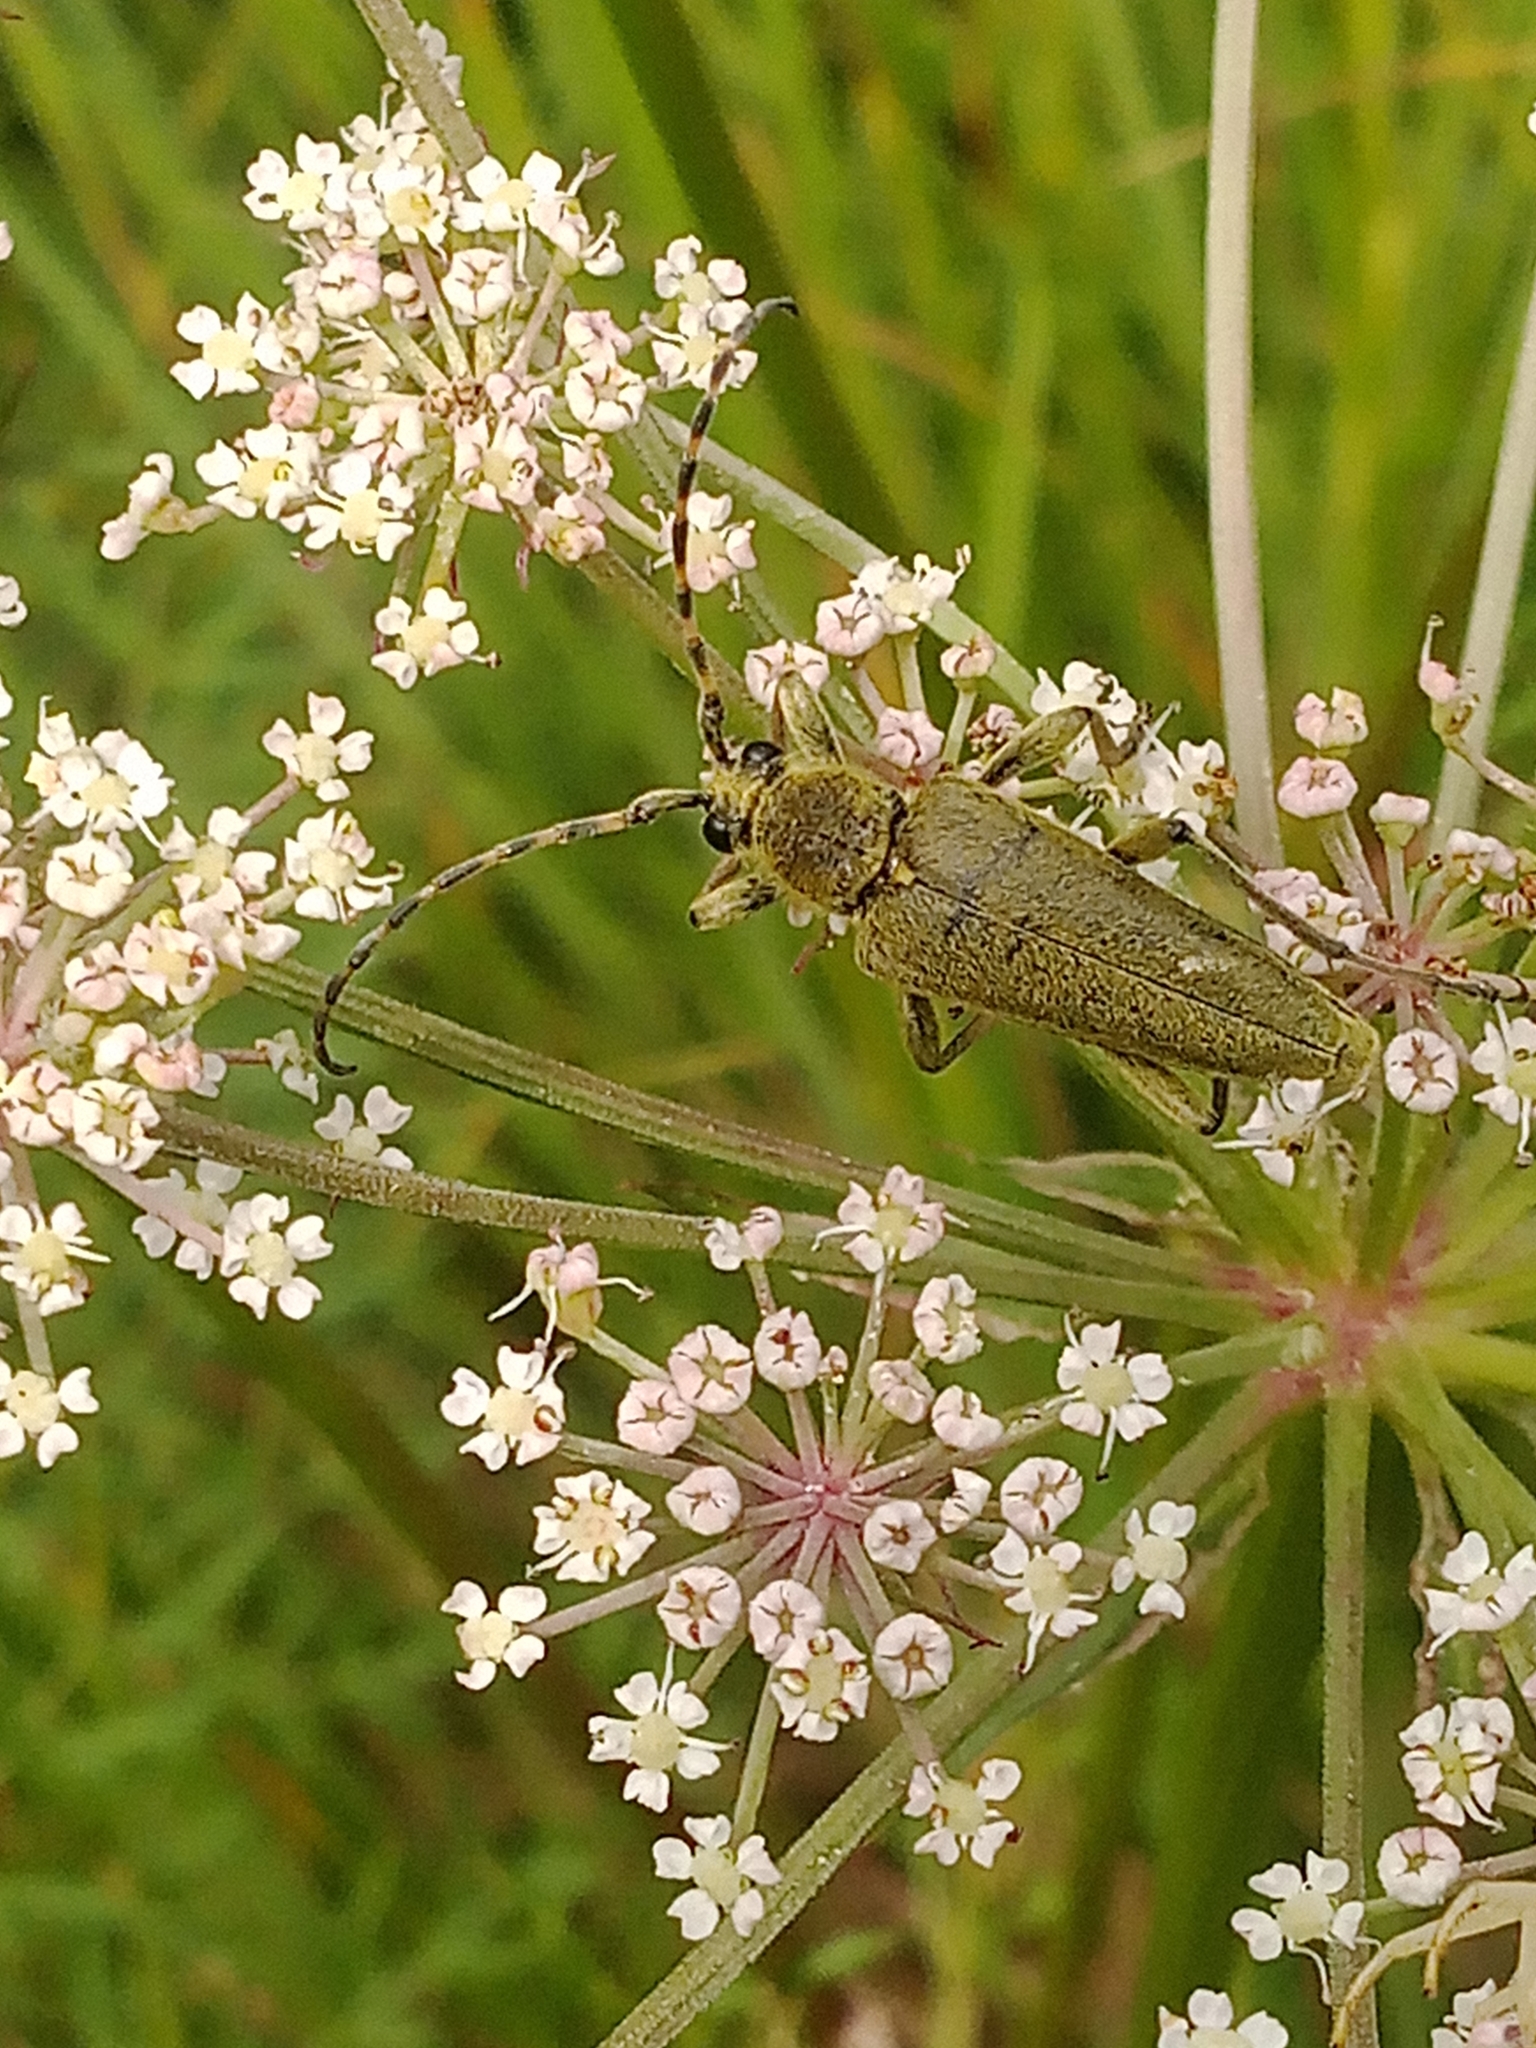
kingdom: Animalia
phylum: Arthropoda
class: Insecta
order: Coleoptera
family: Cerambycidae
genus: Lepturobosca
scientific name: Lepturobosca virens
